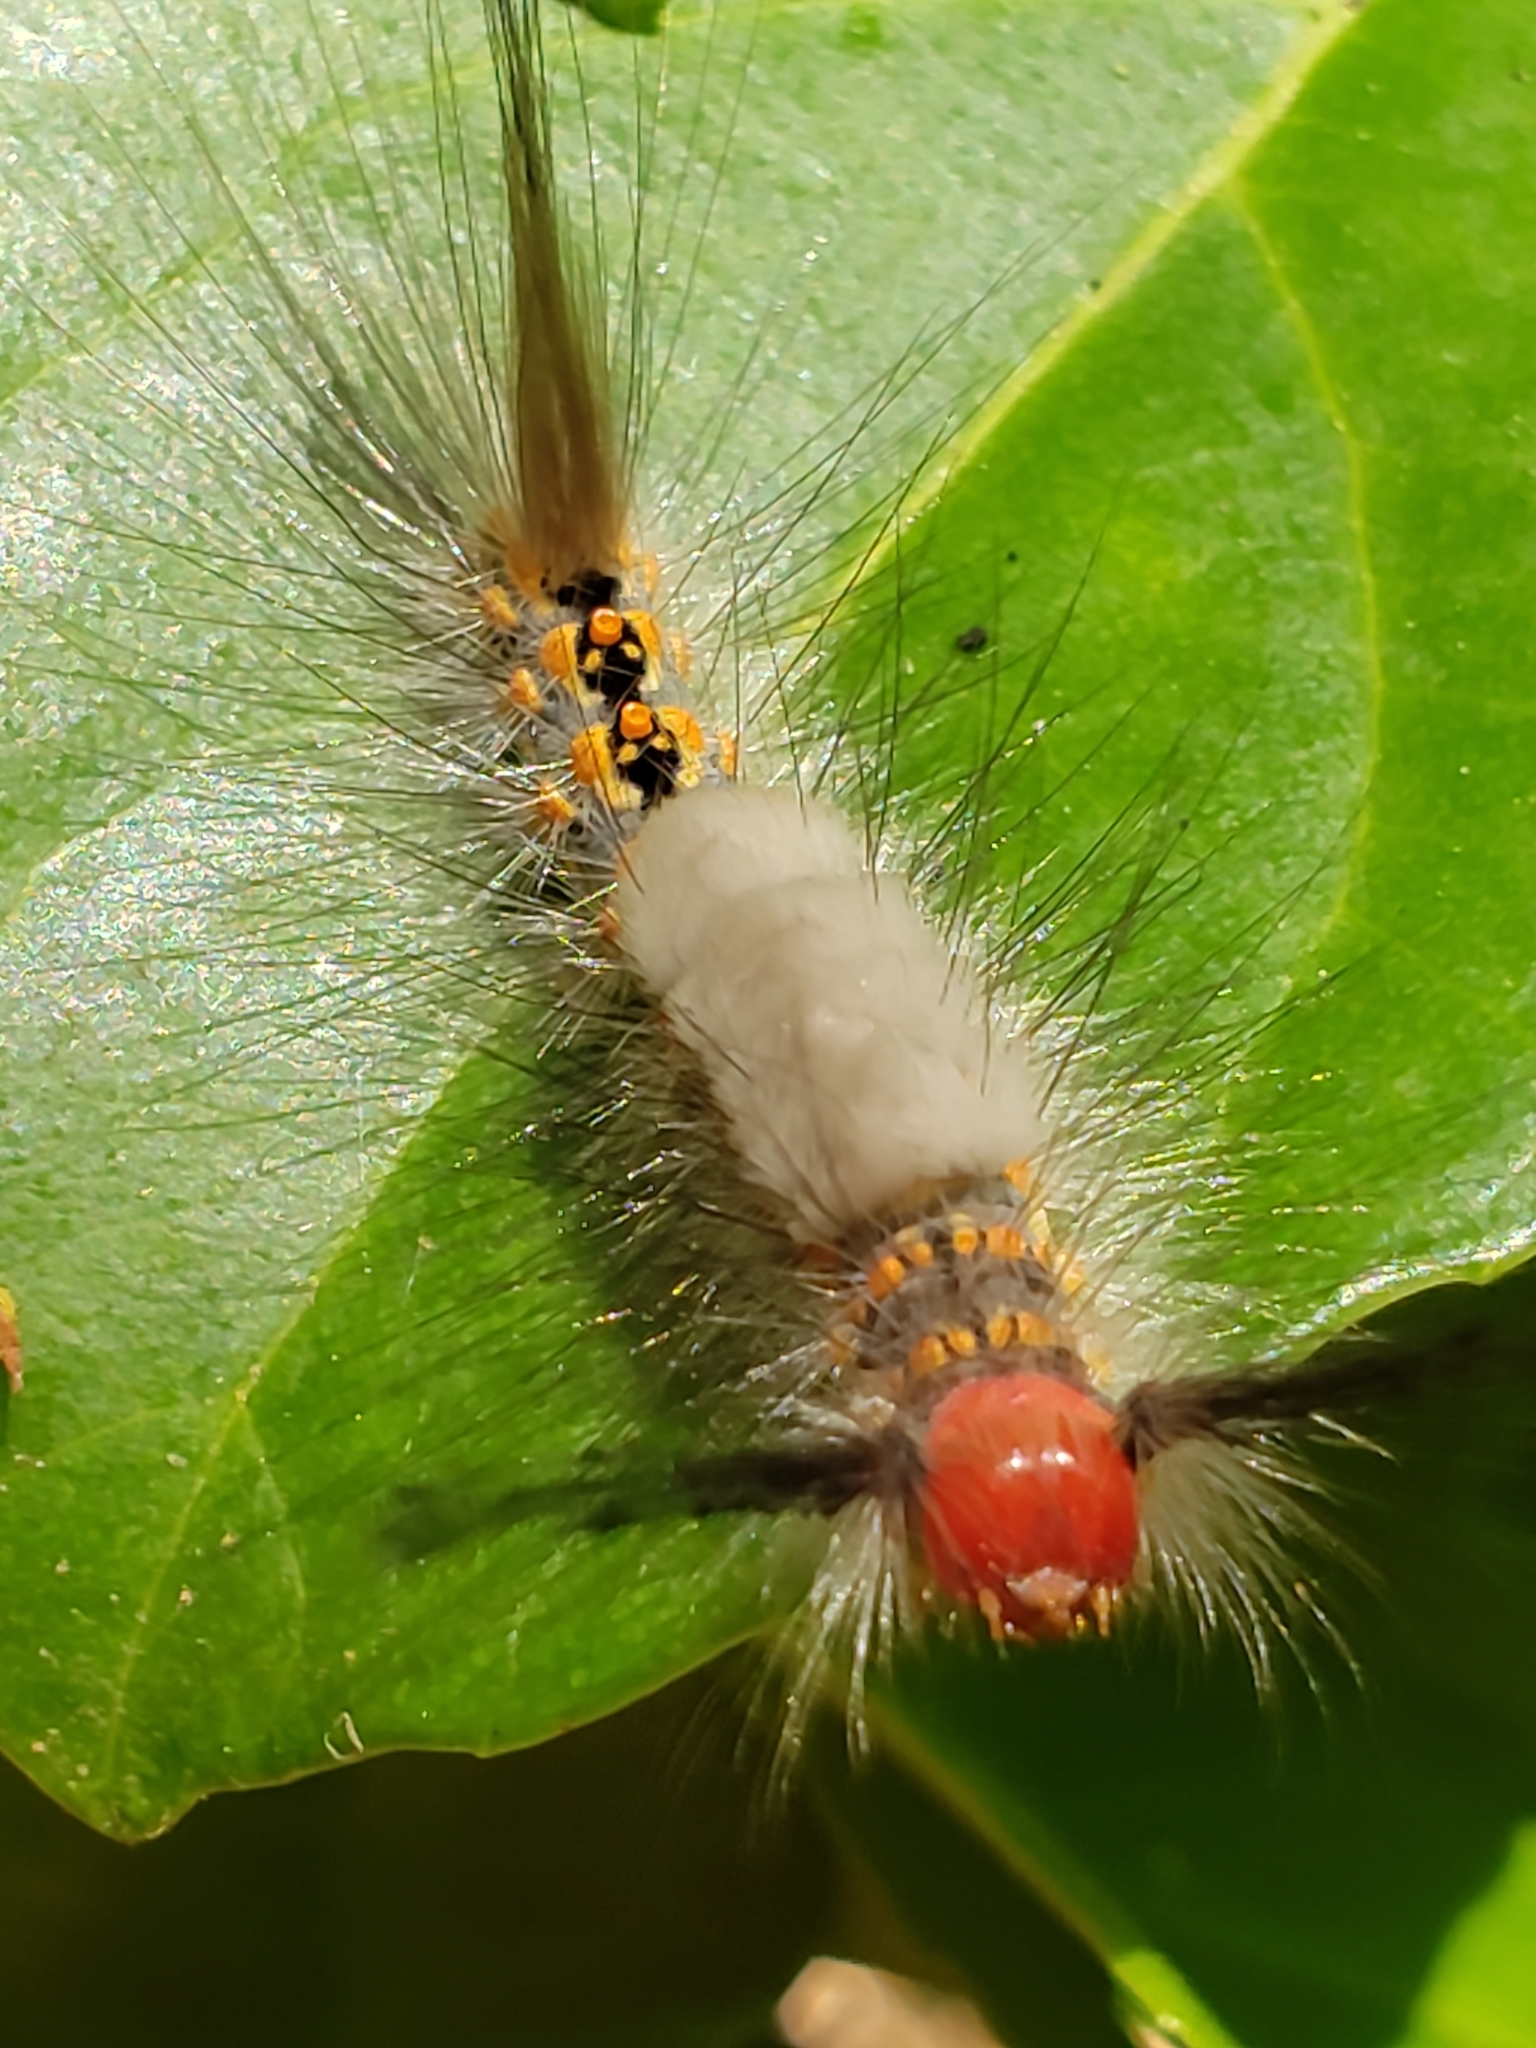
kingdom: Animalia
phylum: Arthropoda
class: Insecta
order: Lepidoptera
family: Erebidae
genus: Orgyia
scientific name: Orgyia detrita
